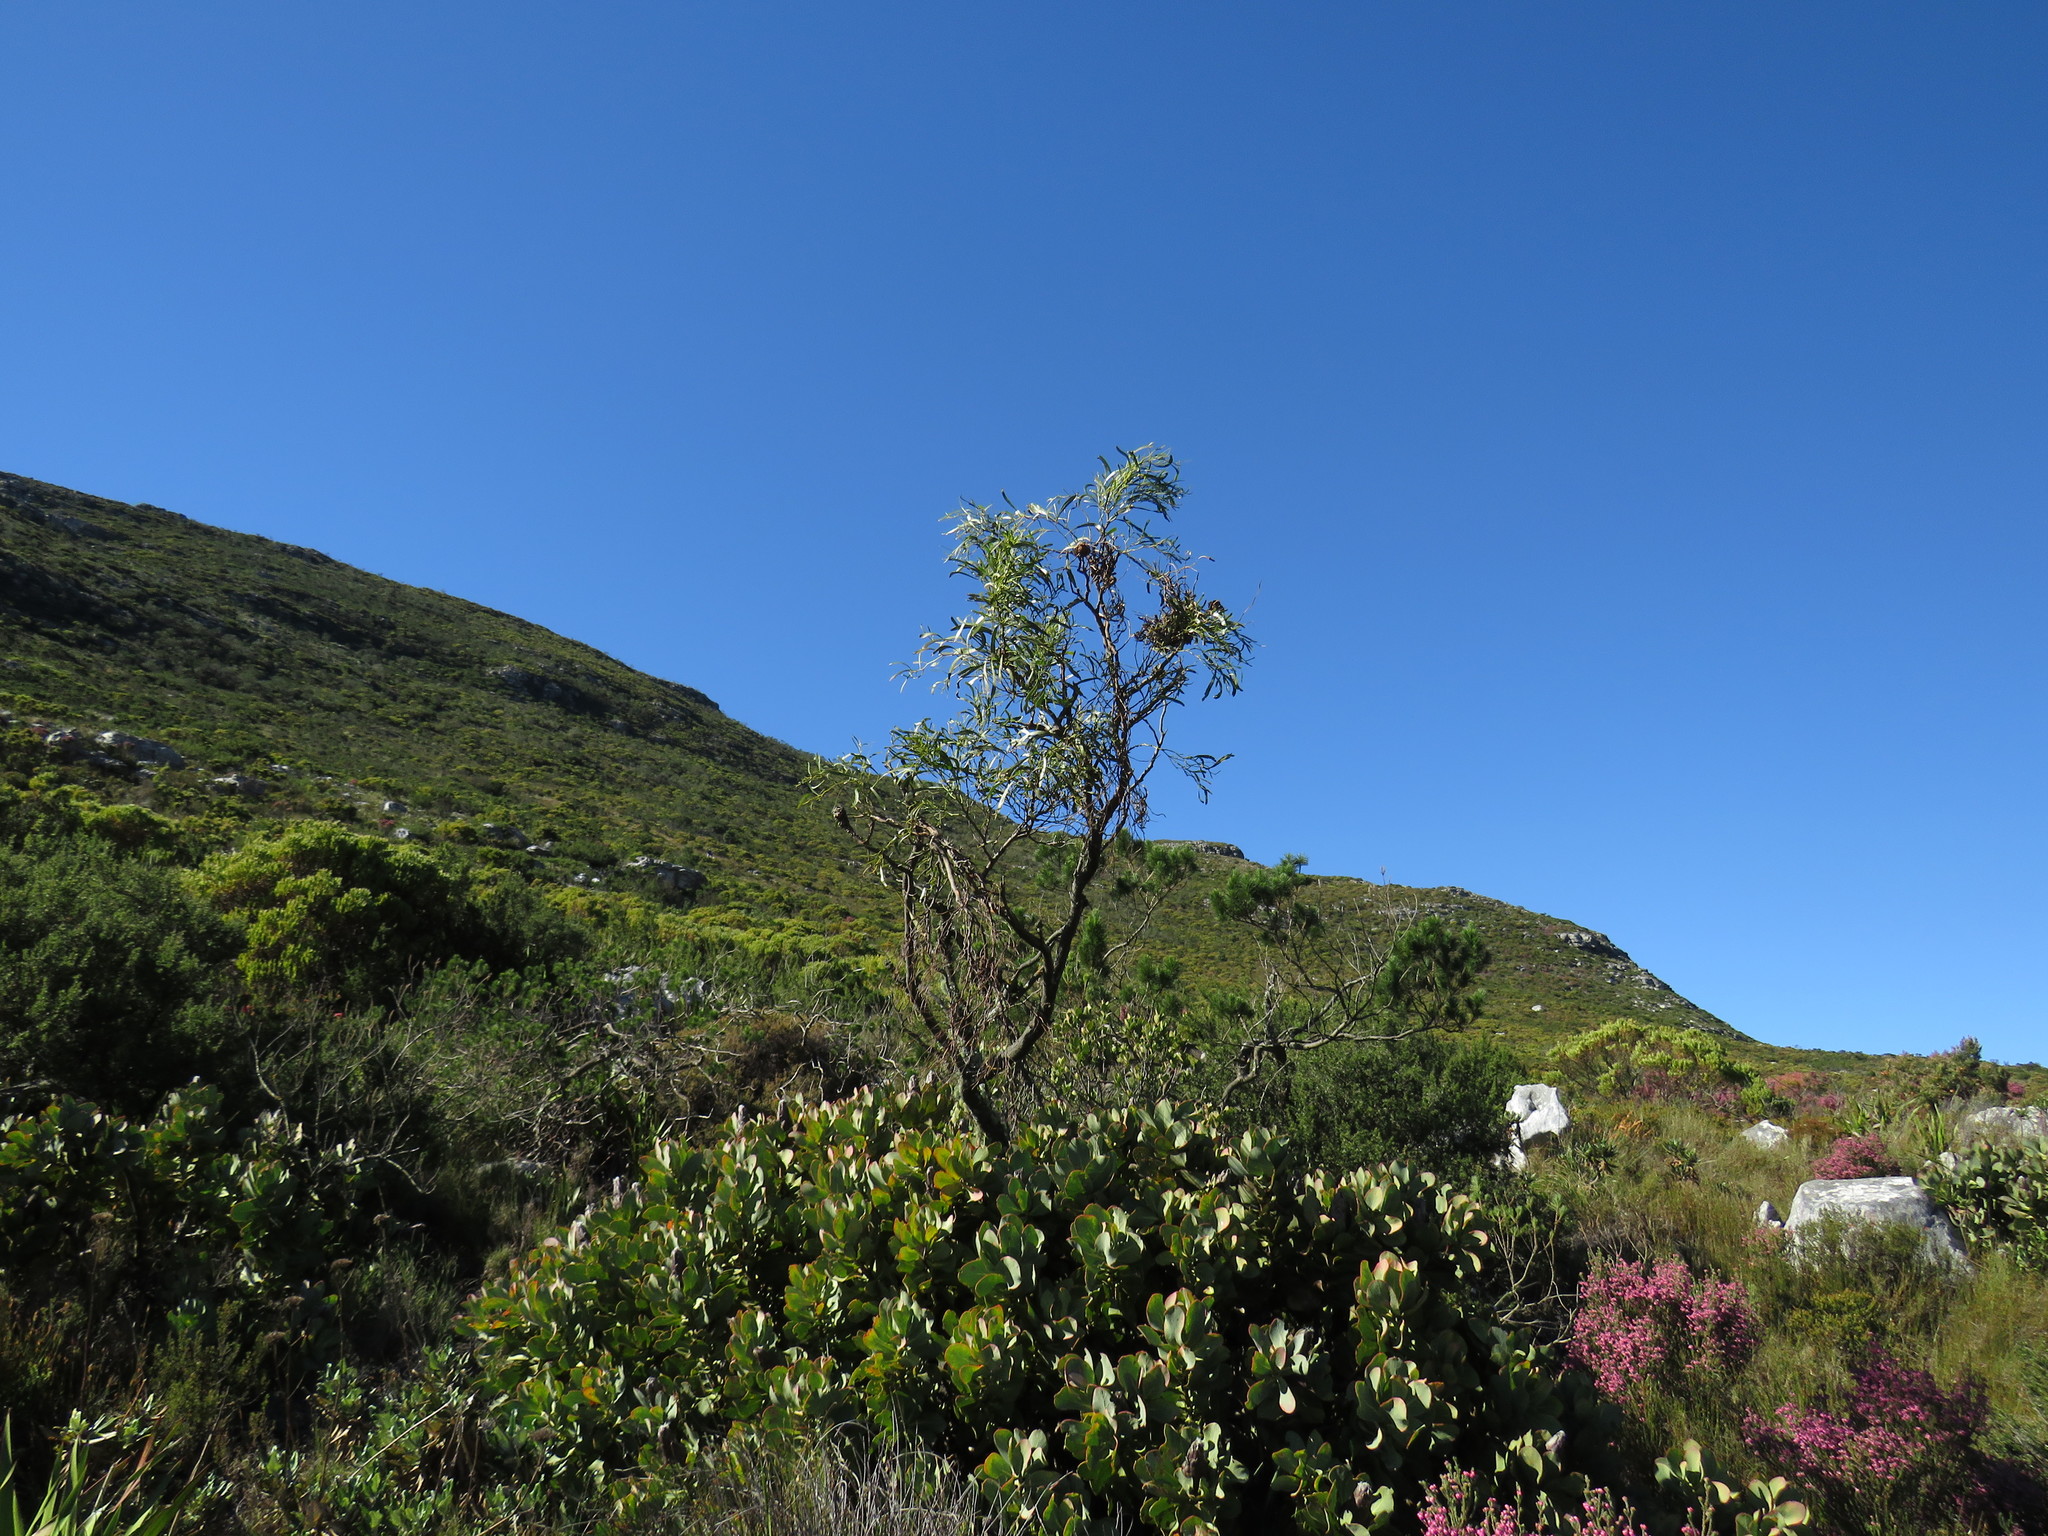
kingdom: Plantae
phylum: Tracheophyta
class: Magnoliopsida
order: Fabales
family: Fabaceae
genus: Acacia
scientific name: Acacia saligna
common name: Orange wattle
